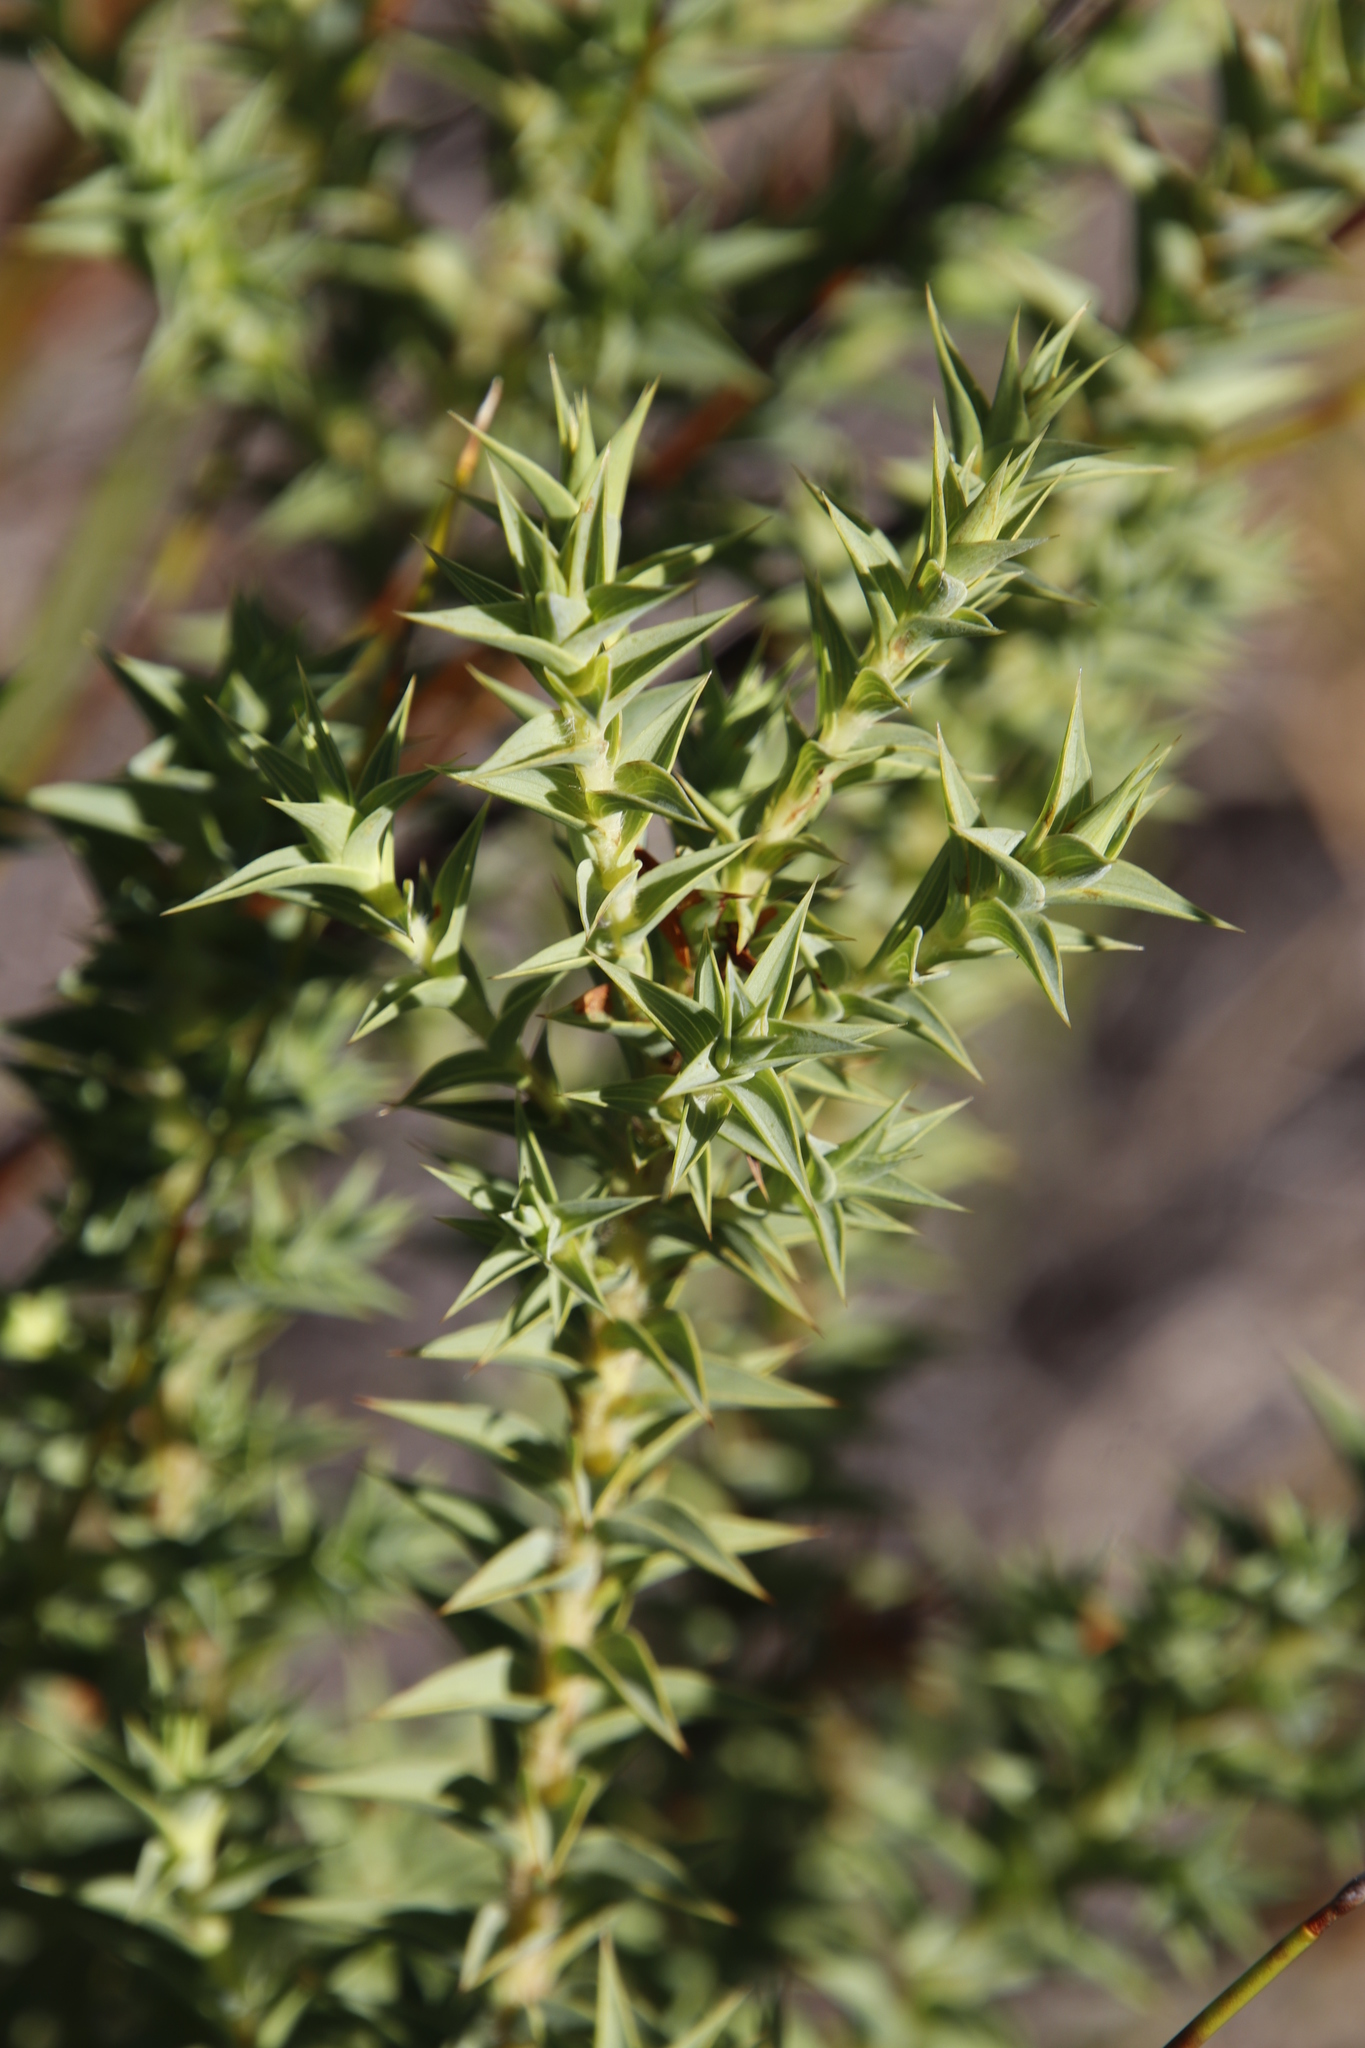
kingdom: Plantae
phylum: Tracheophyta
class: Magnoliopsida
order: Fabales
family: Fabaceae
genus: Aspalathus
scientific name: Aspalathus cordata
